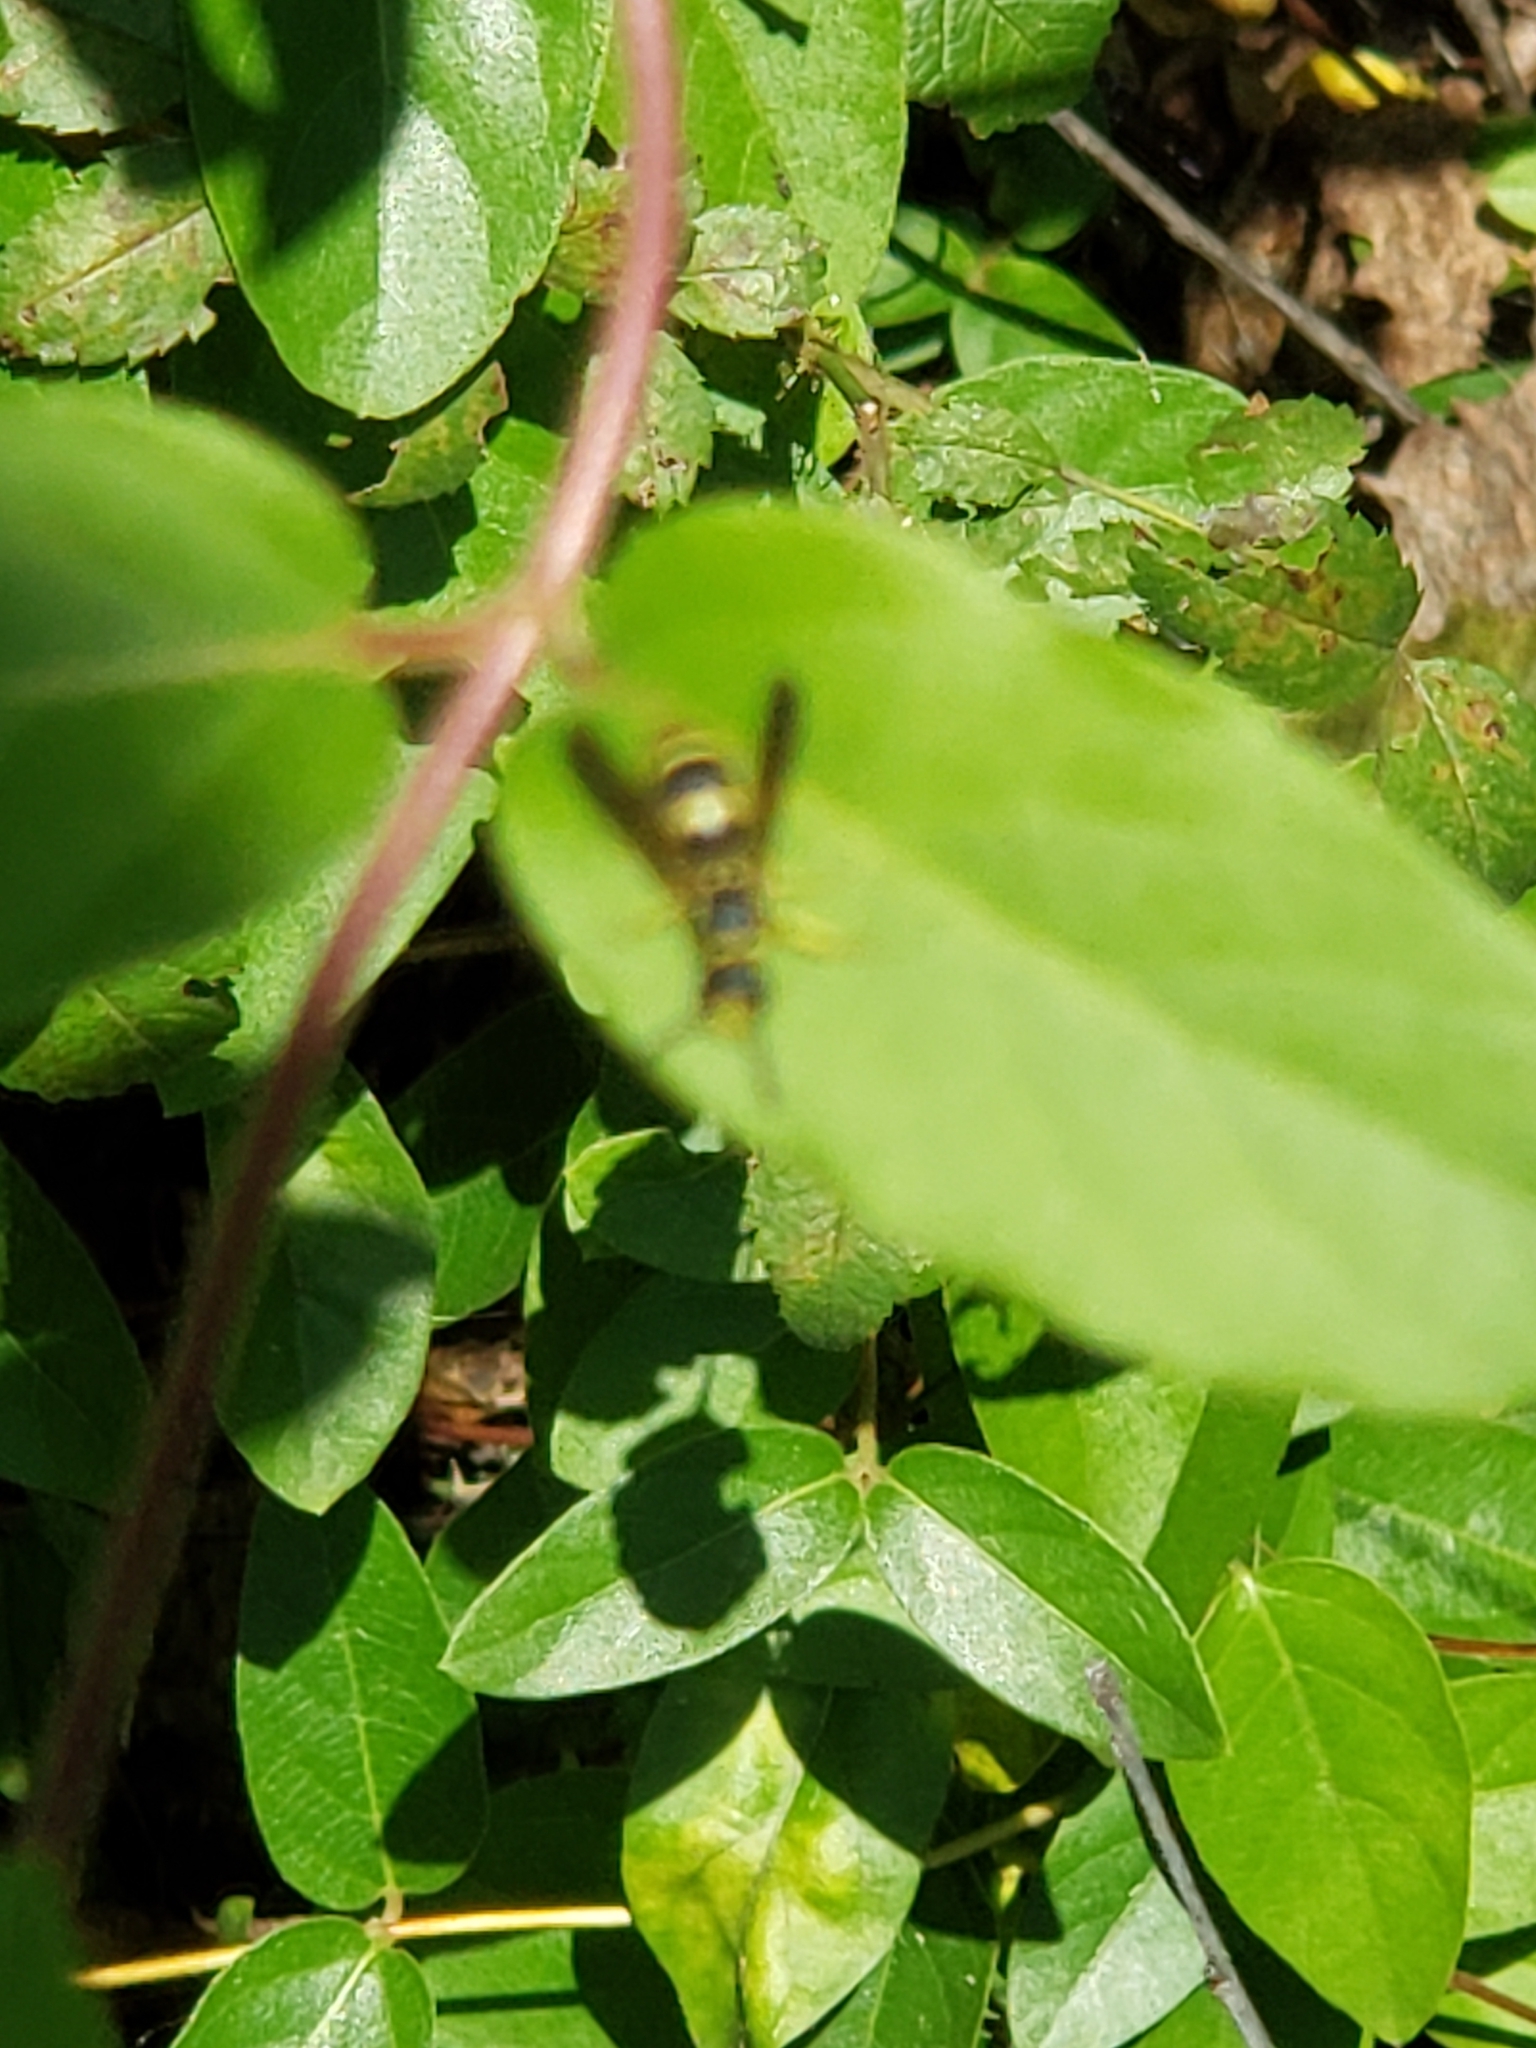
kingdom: Animalia
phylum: Arthropoda
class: Insecta
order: Hymenoptera
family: Vespidae
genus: Ancistrocerus
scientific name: Ancistrocerus
